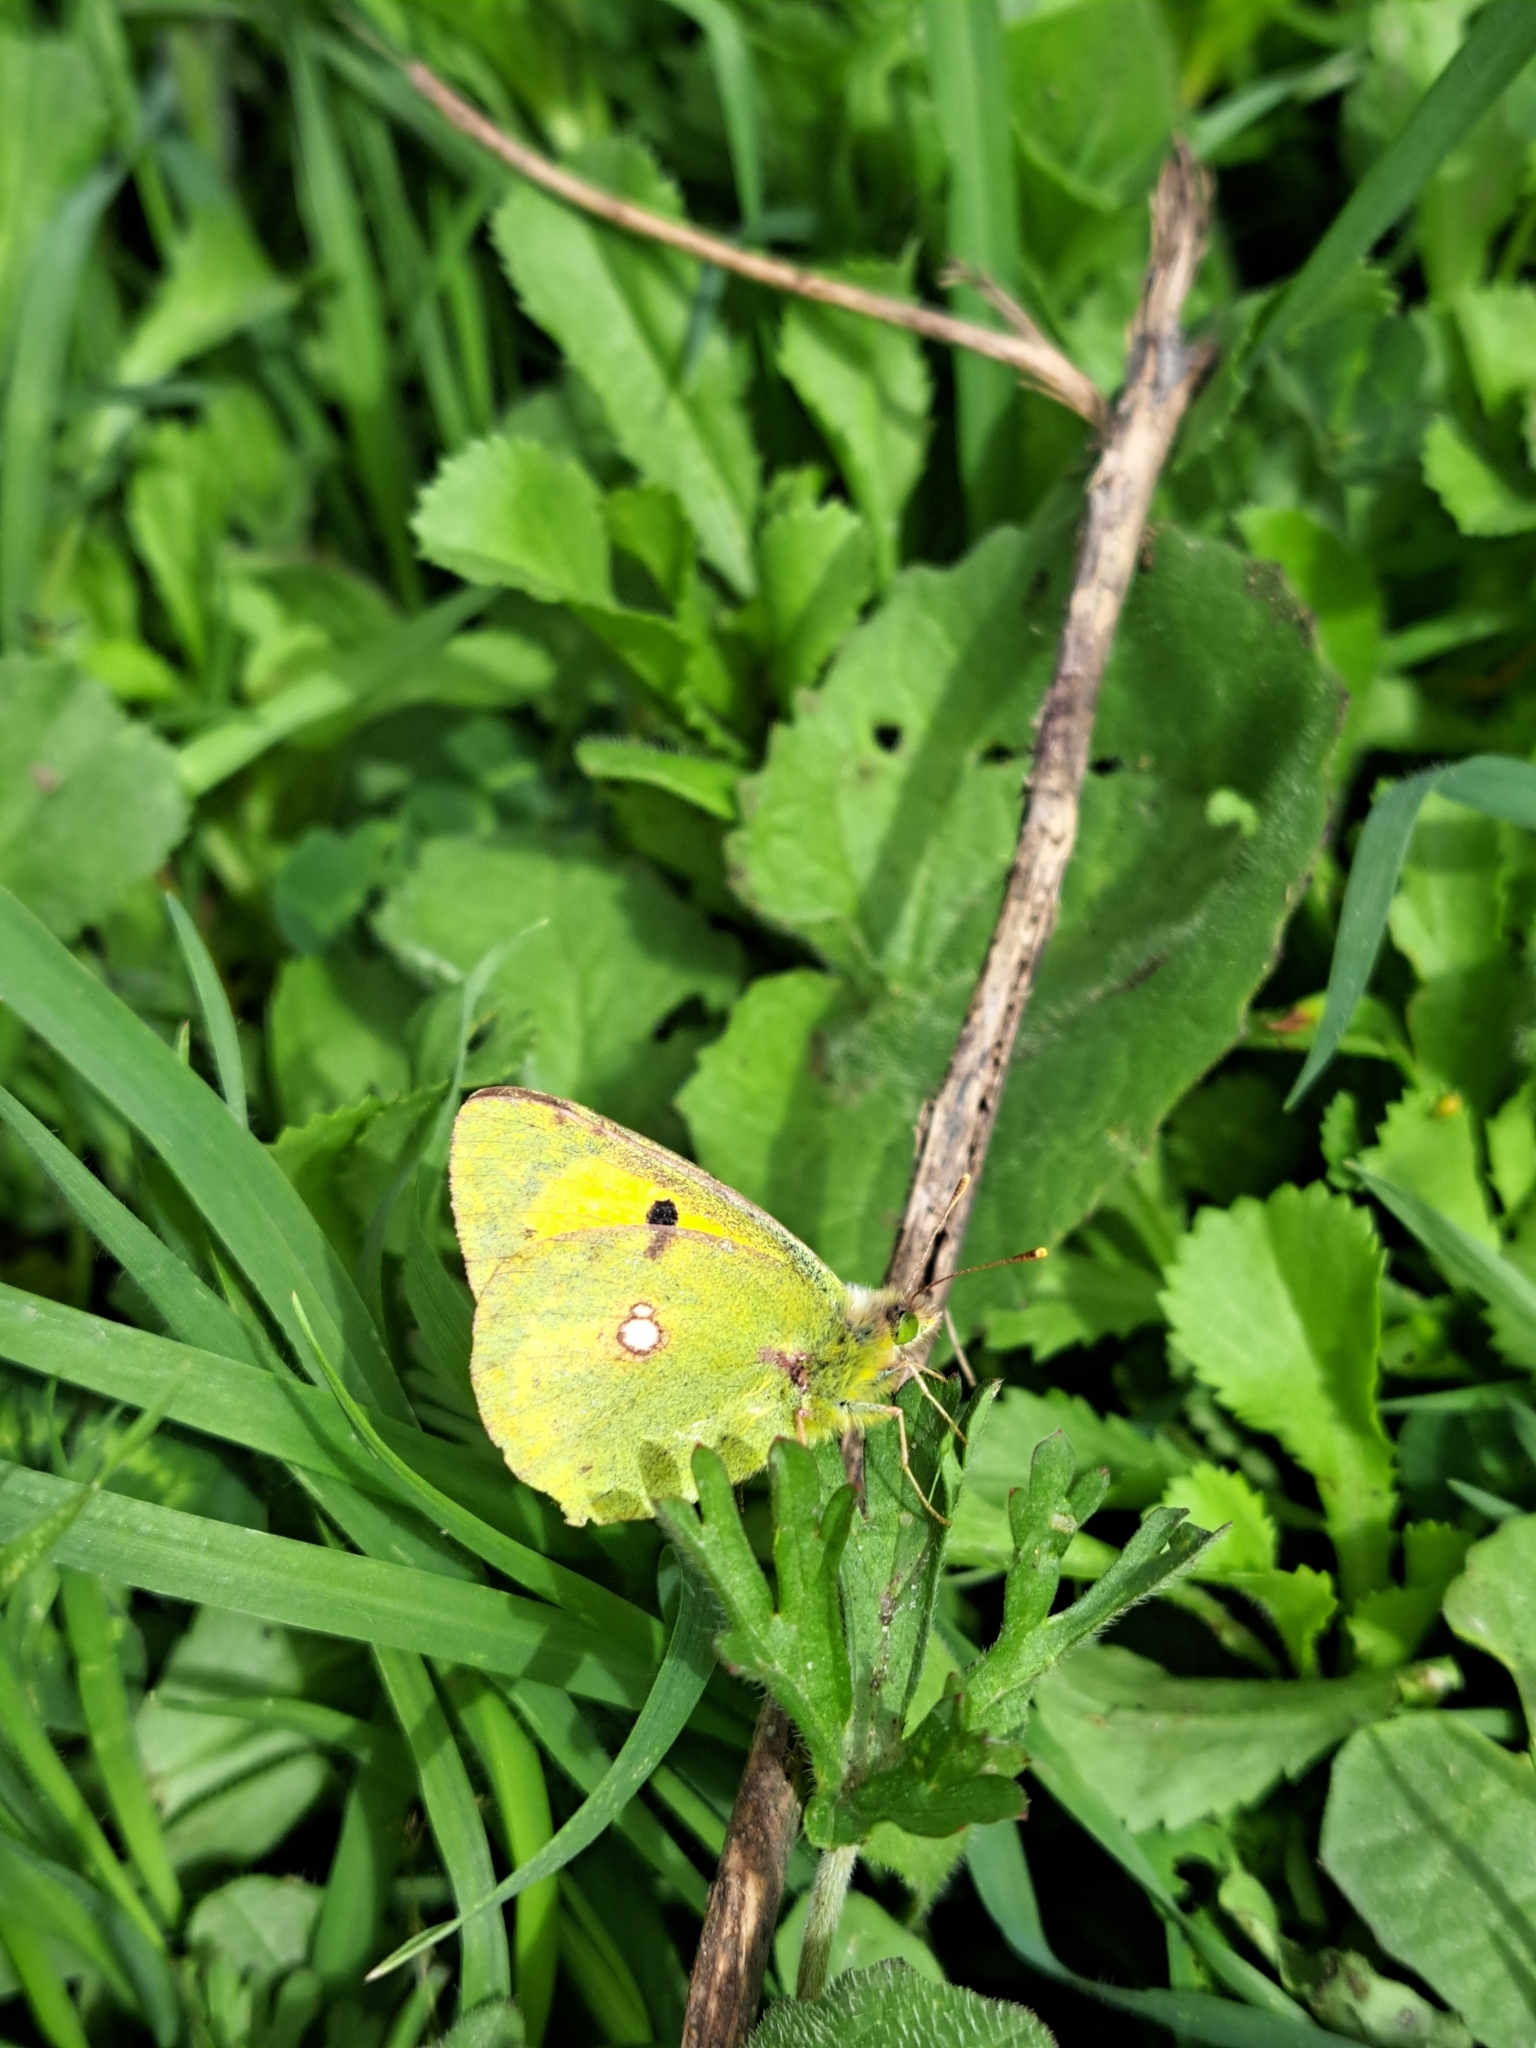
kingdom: Animalia
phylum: Arthropoda
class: Insecta
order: Lepidoptera
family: Pieridae
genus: Colias
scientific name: Colias croceus
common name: Clouded yellow
